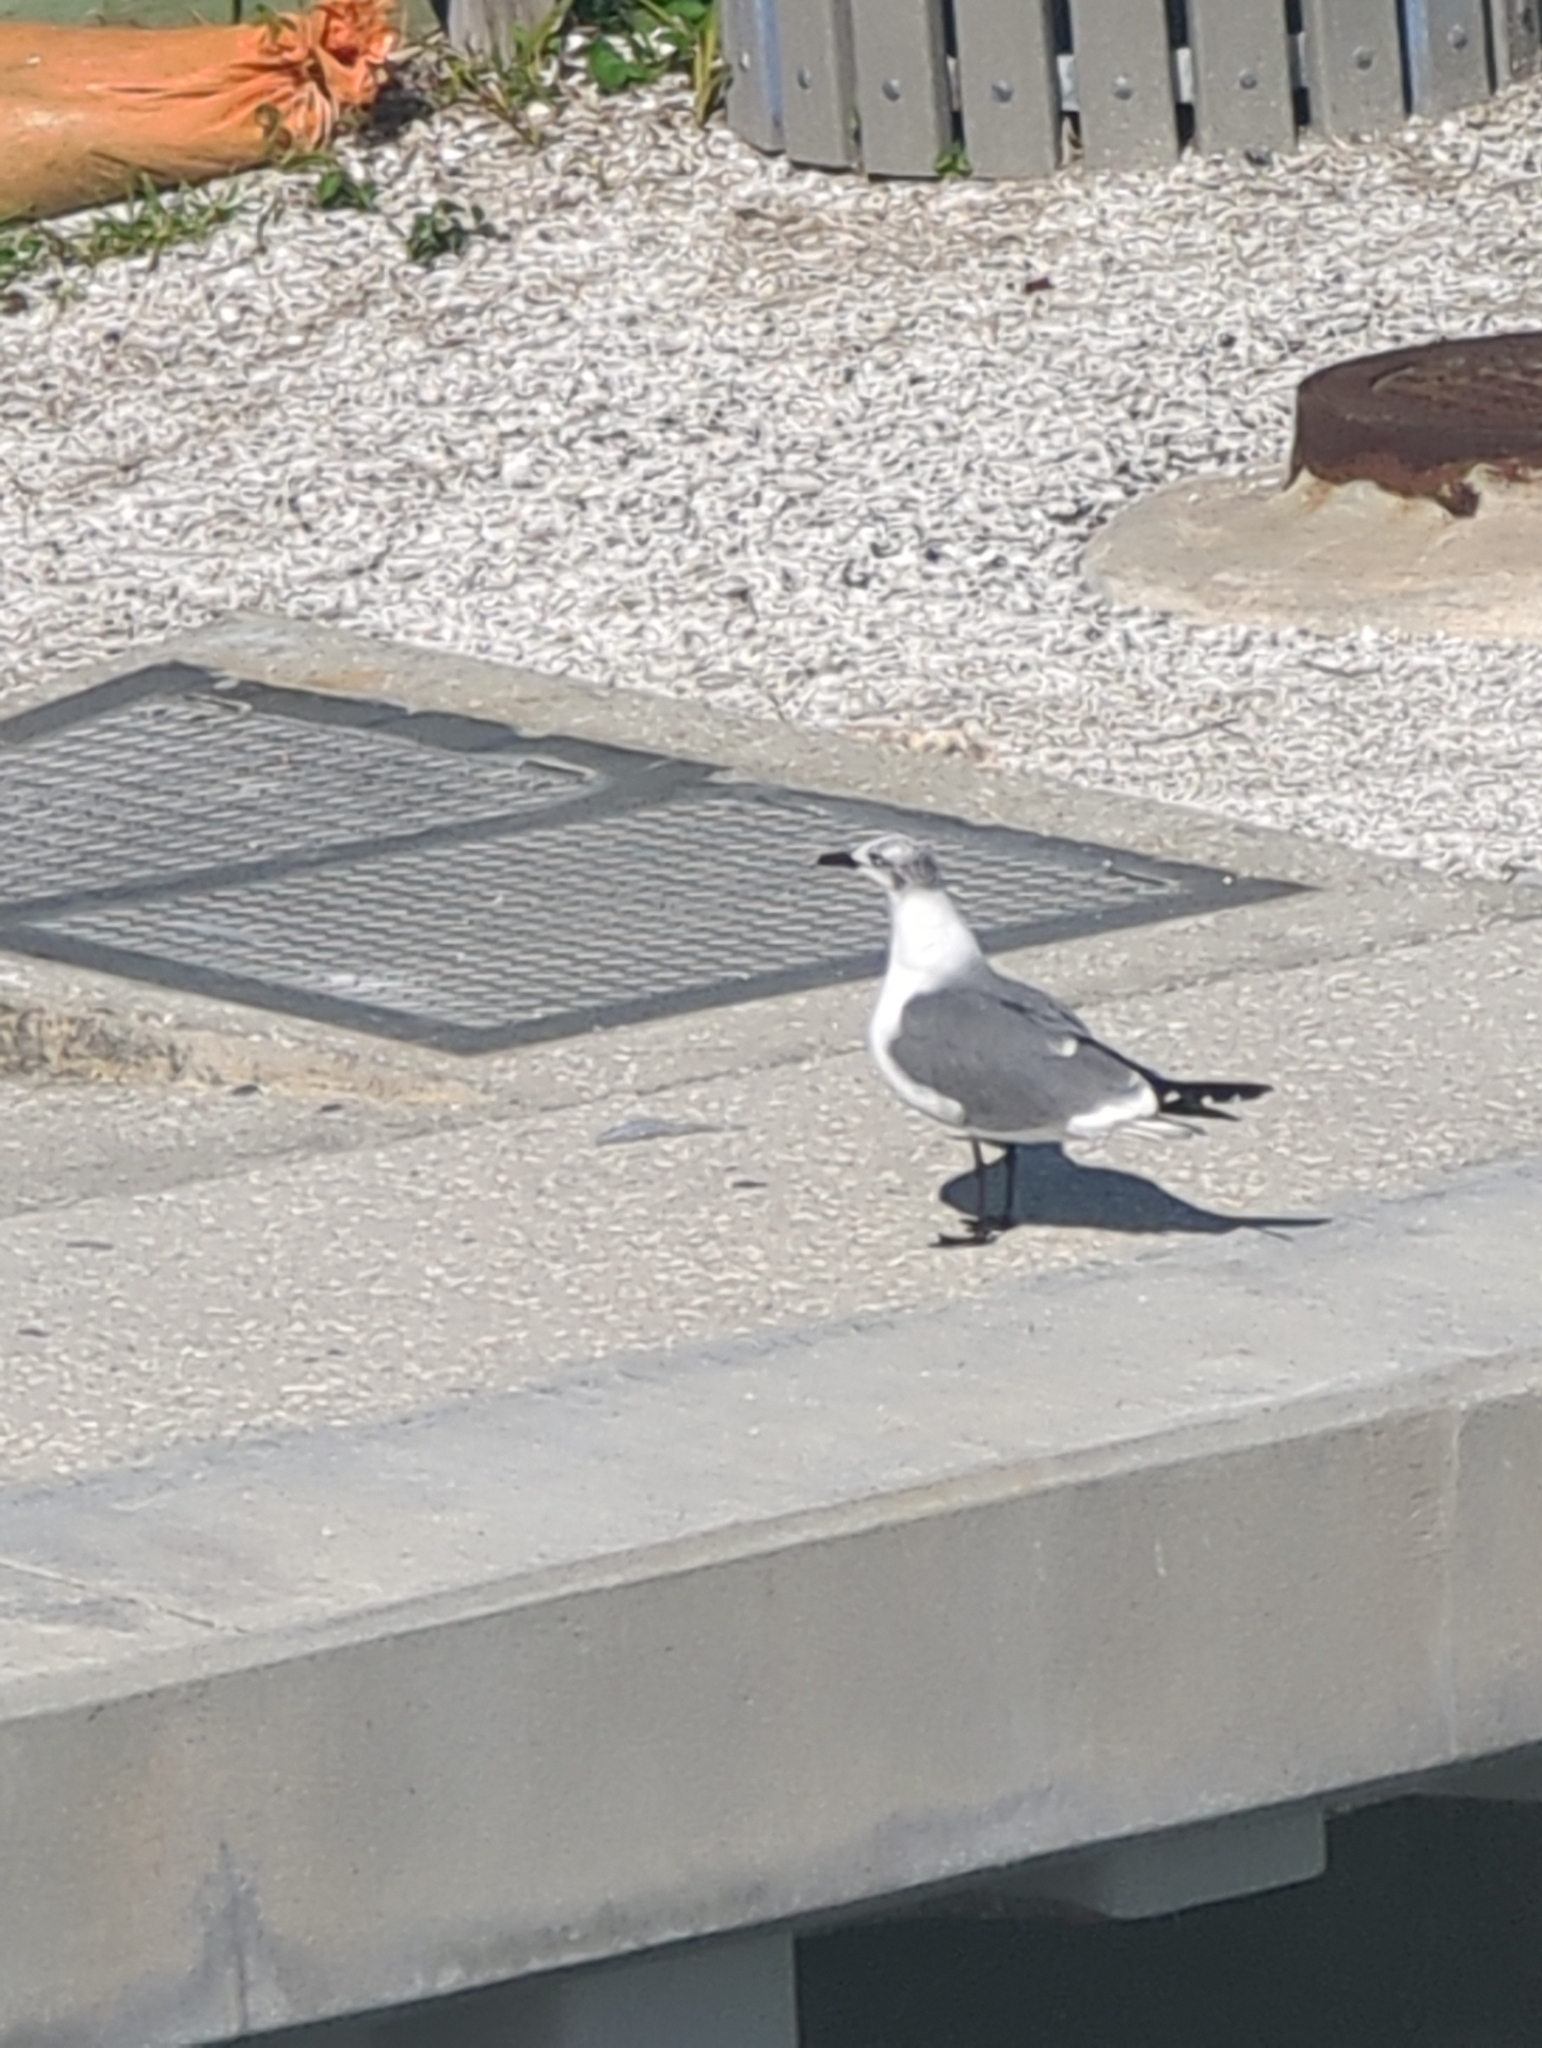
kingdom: Animalia
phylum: Chordata
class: Aves
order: Charadriiformes
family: Laridae
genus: Leucophaeus
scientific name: Leucophaeus atricilla
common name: Laughing gull
